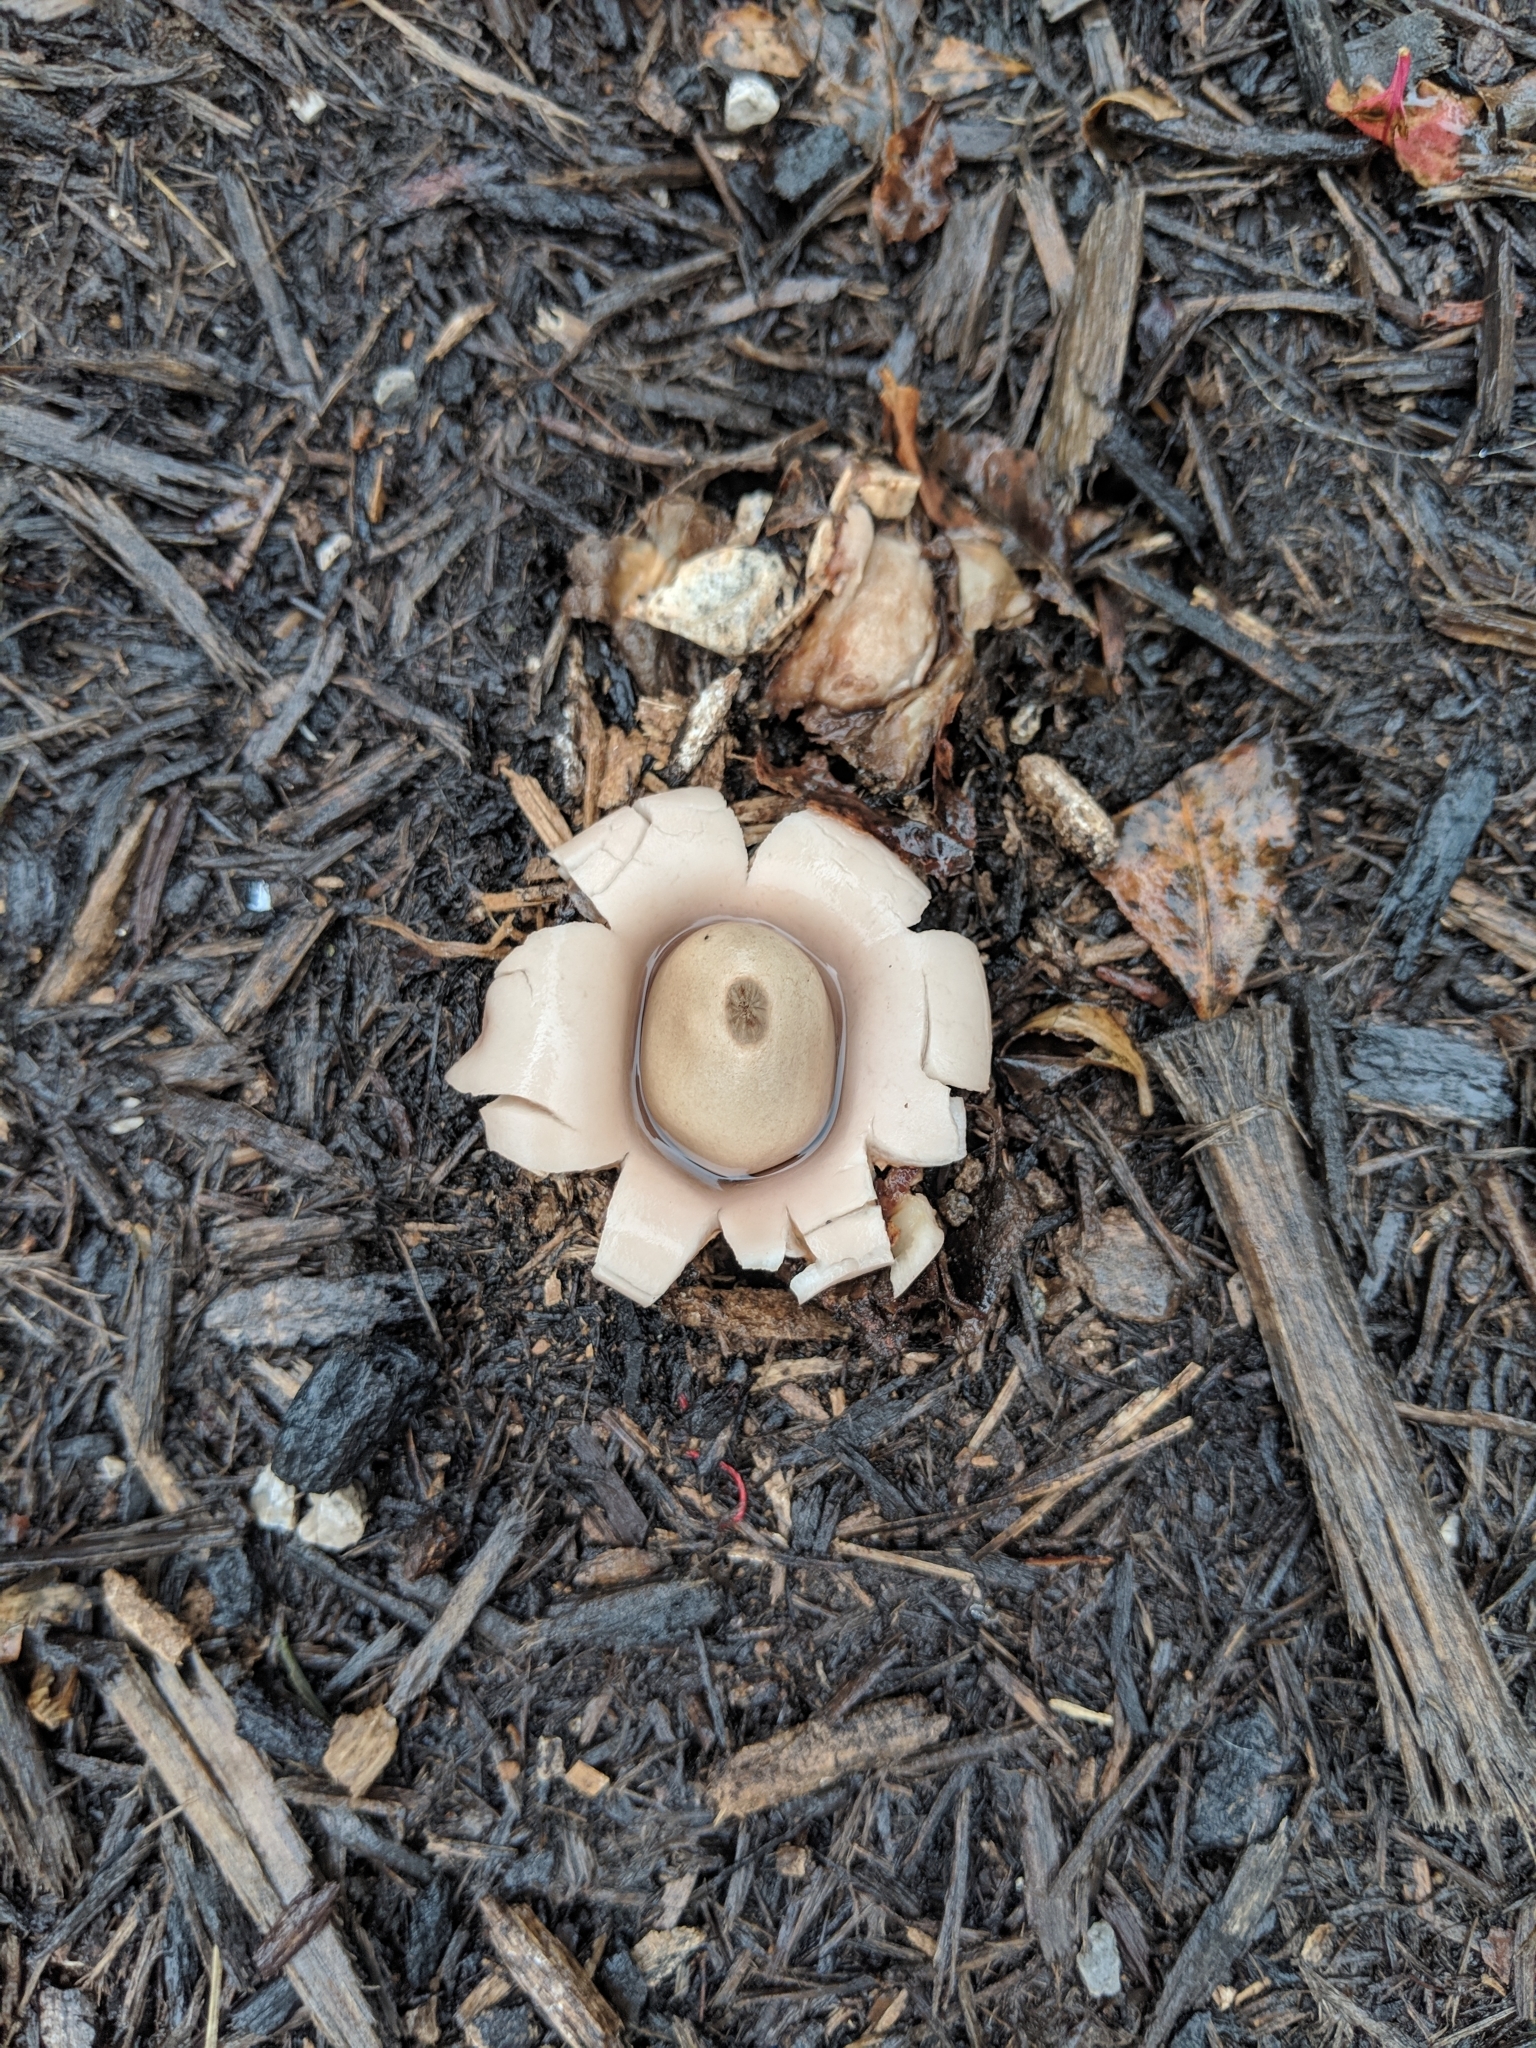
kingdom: Fungi
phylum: Basidiomycota
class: Agaricomycetes
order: Geastrales
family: Geastraceae
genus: Geastrum
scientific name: Geastrum saccatum
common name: Rounded earthstar
